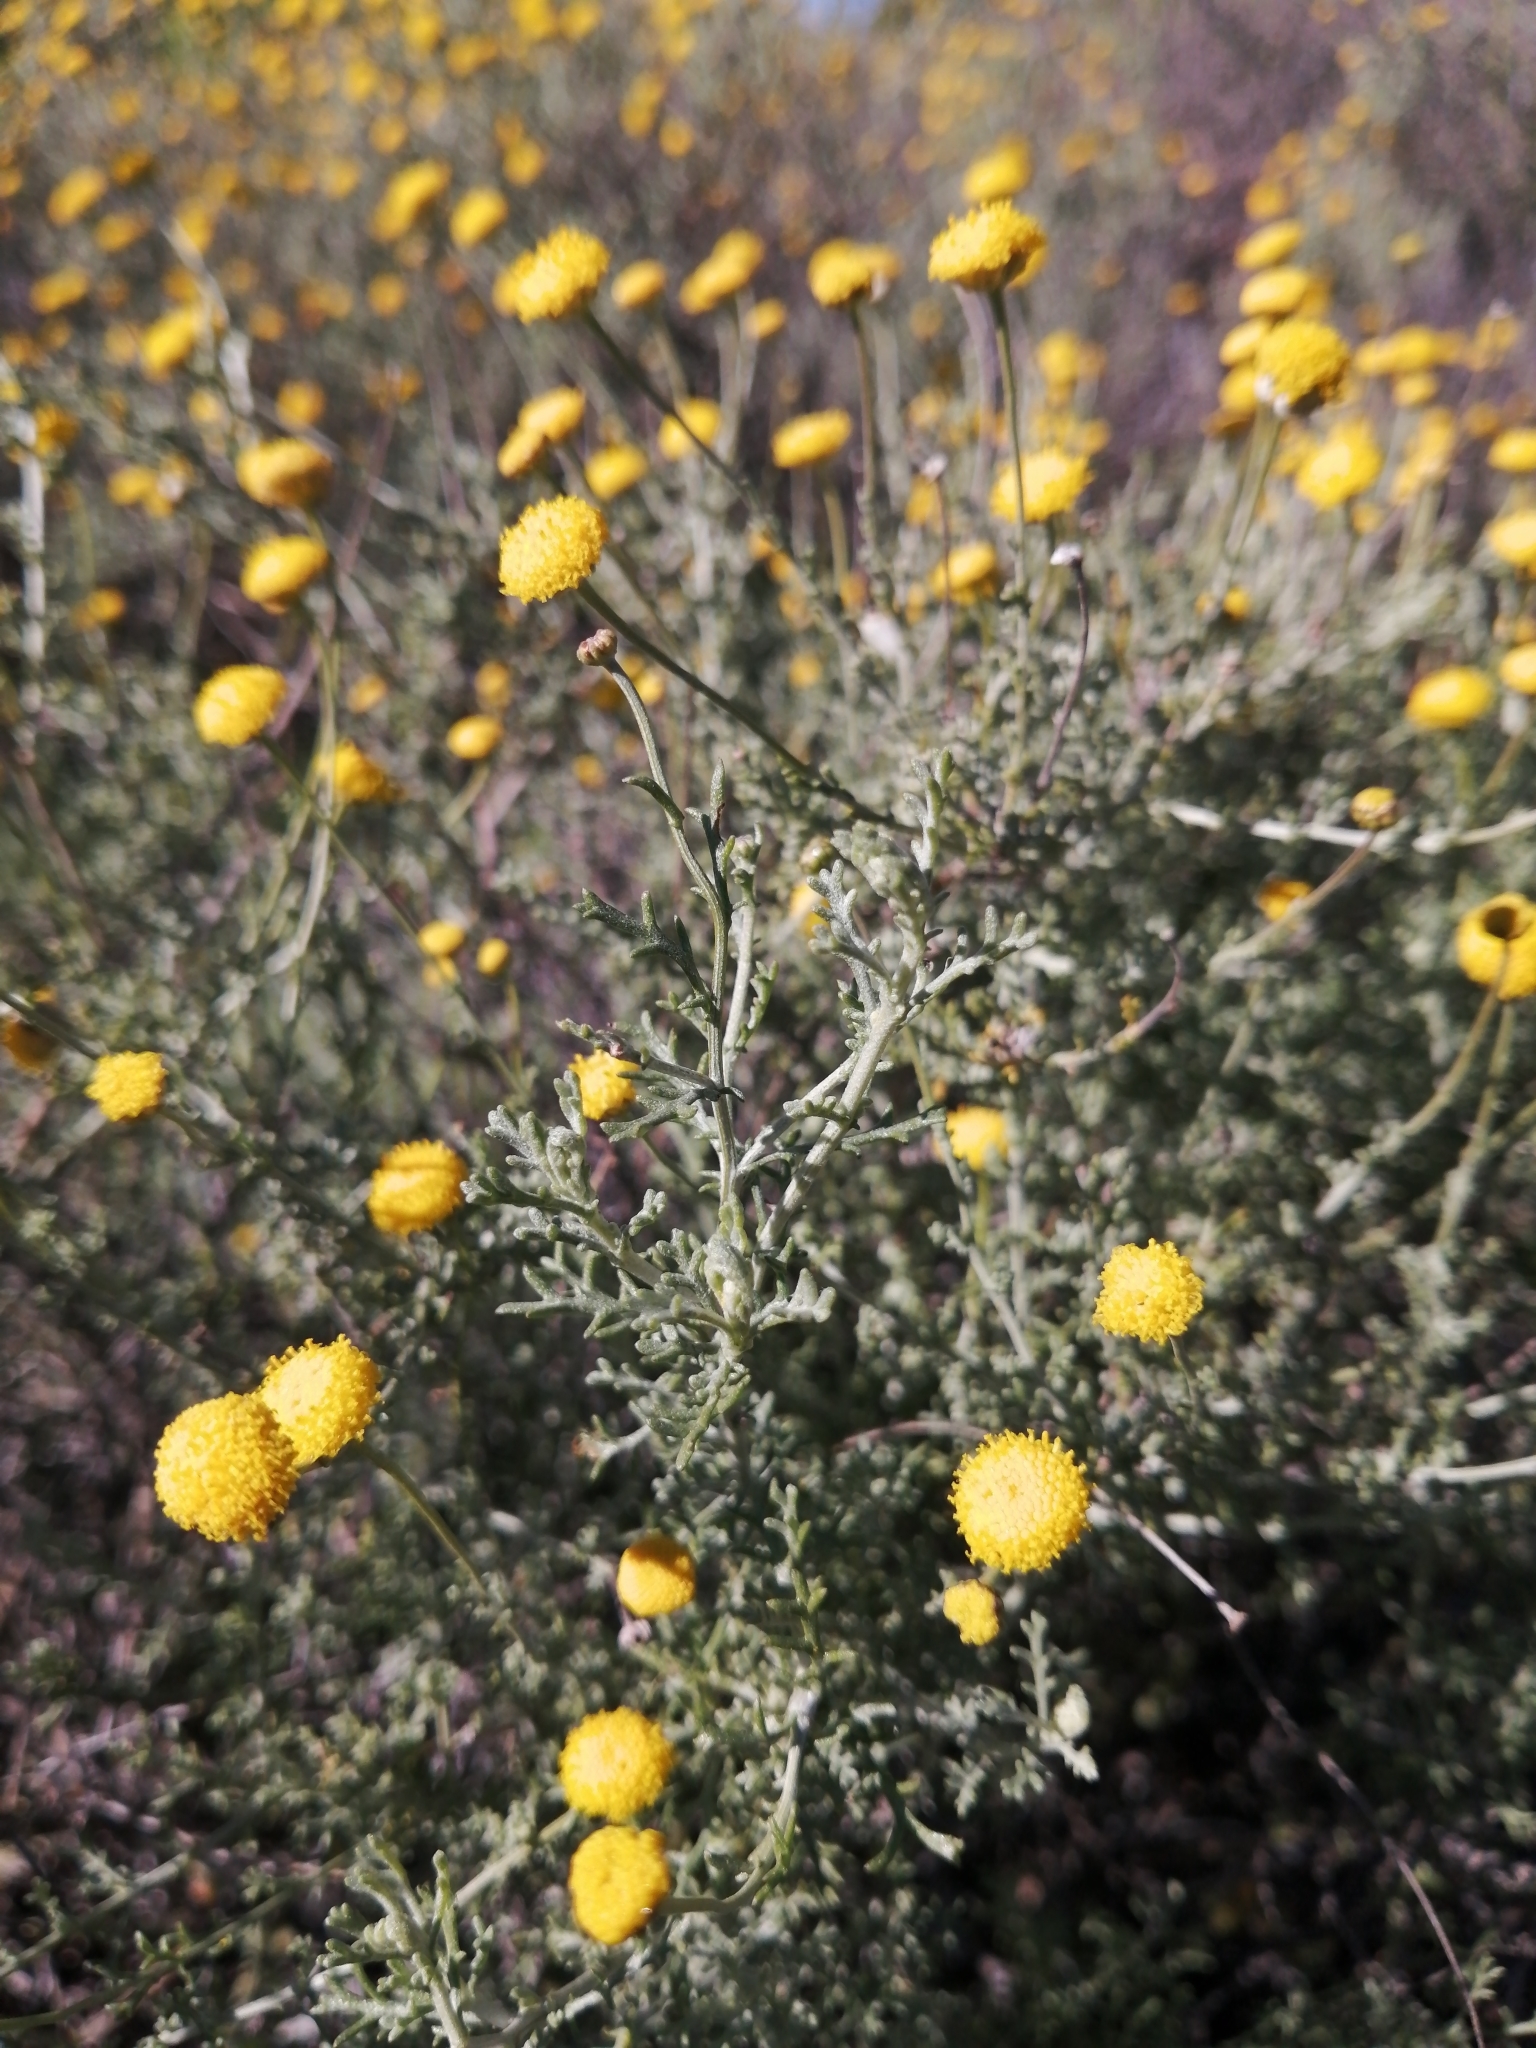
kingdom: Plantae
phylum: Tracheophyta
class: Magnoliopsida
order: Asterales
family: Asteraceae
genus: Pentzia
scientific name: Pentzia incana
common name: African sheepbush
